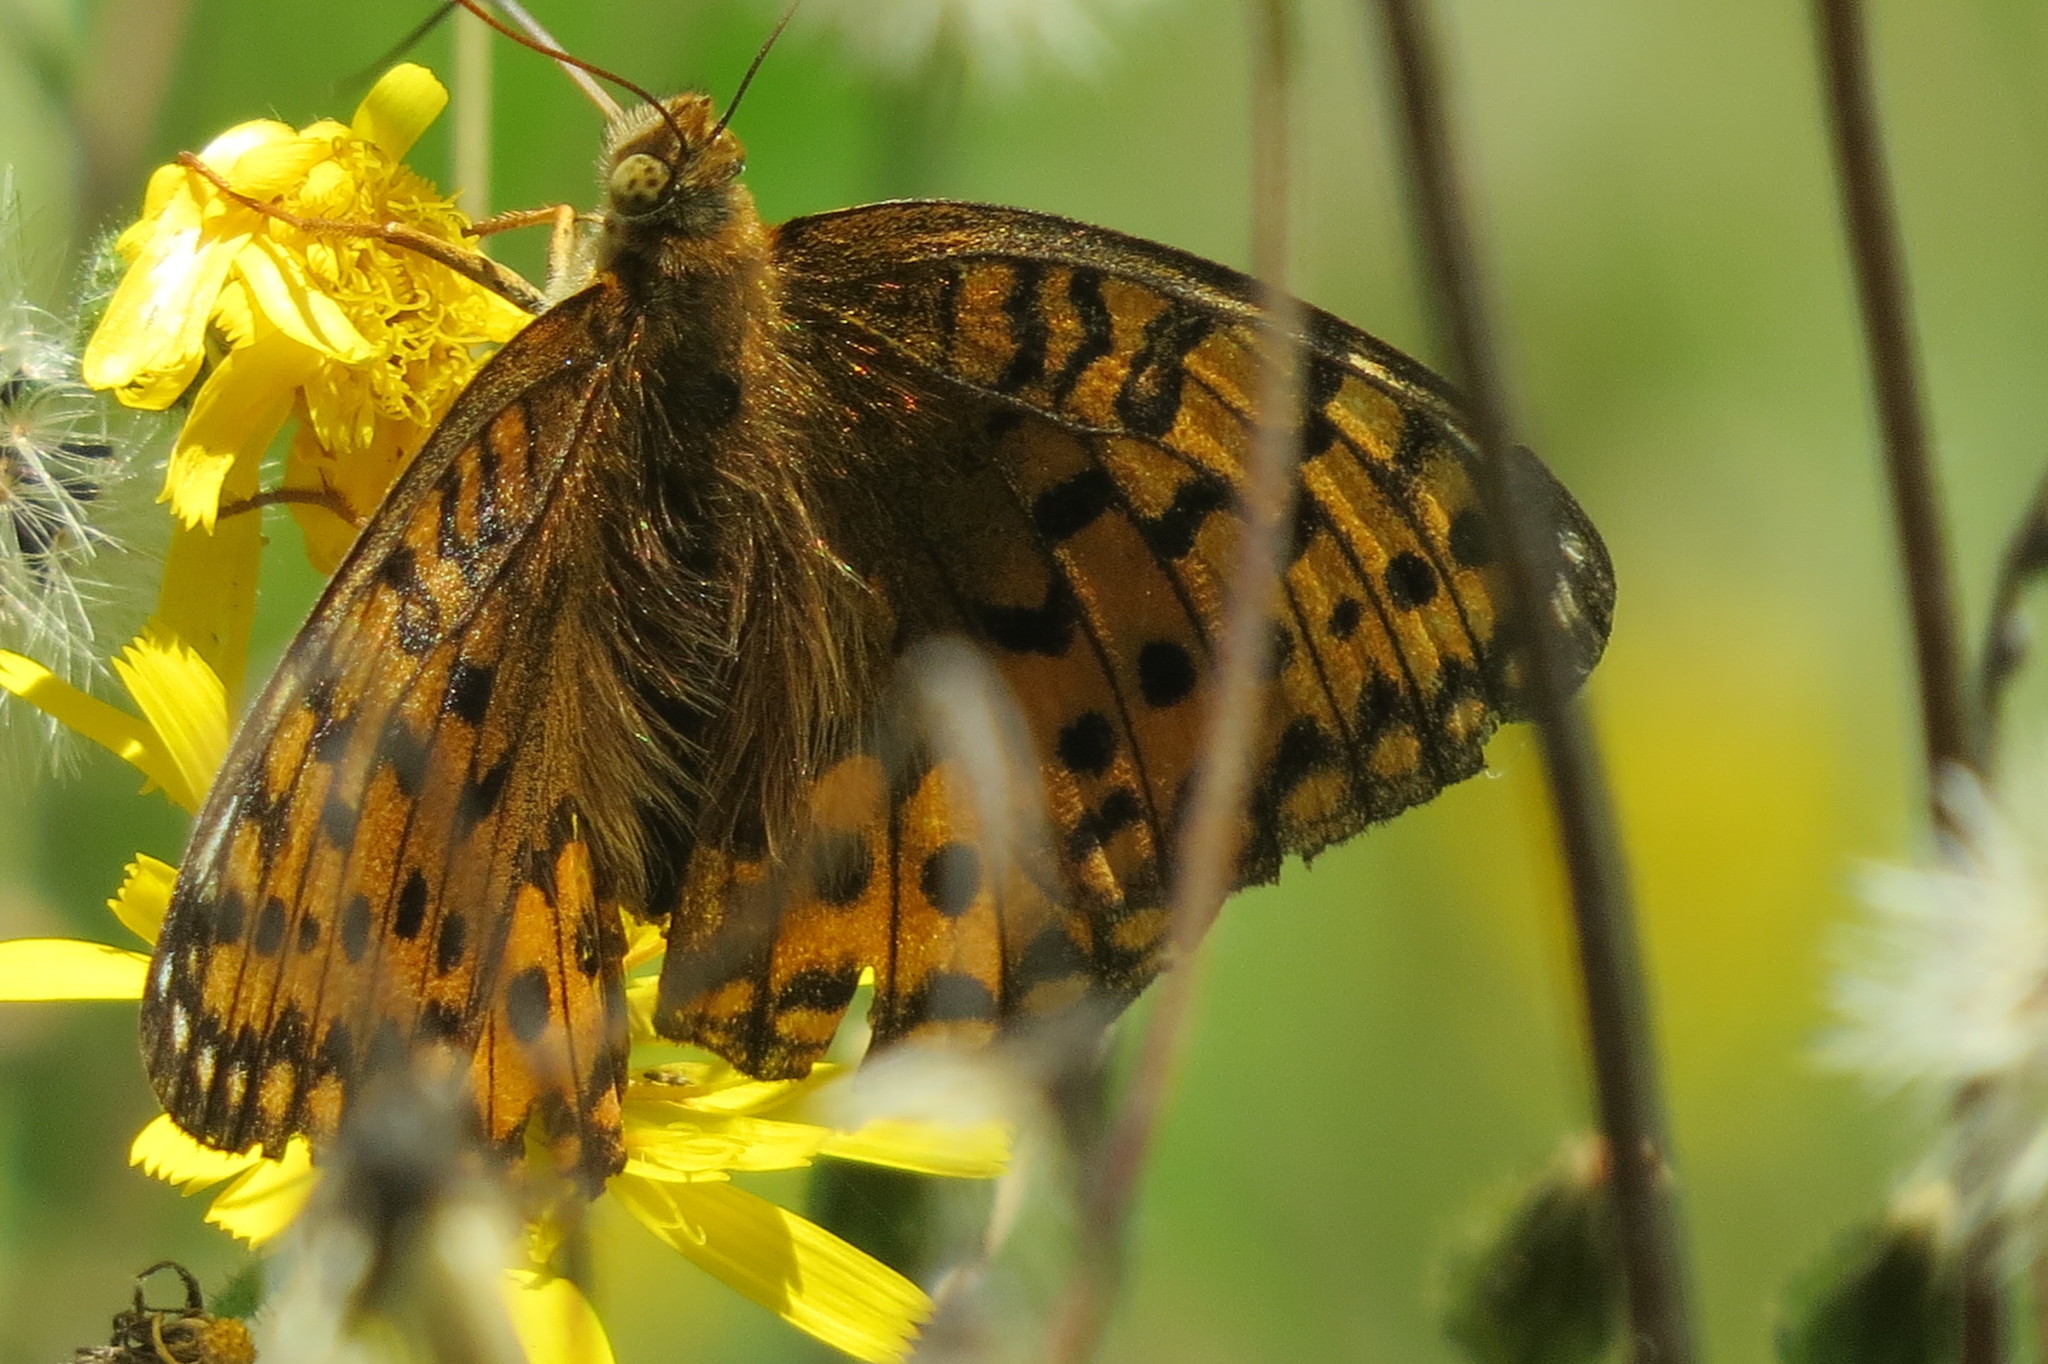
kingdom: Animalia
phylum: Arthropoda
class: Insecta
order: Lepidoptera
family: Nymphalidae
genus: Speyeria
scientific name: Speyeria aglaja
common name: Dark green fritillary
